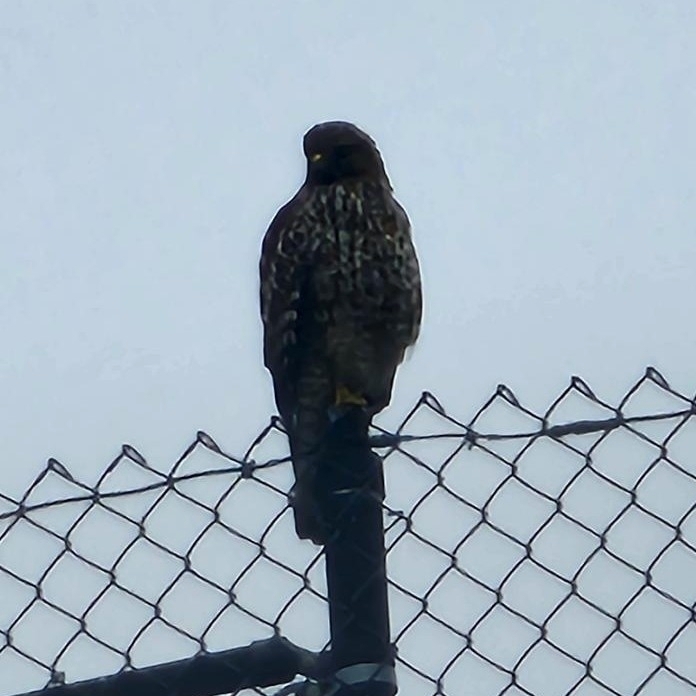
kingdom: Animalia
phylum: Chordata
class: Aves
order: Accipitriformes
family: Accipitridae
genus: Buteo
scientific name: Buteo lineatus
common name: Red-shouldered hawk
